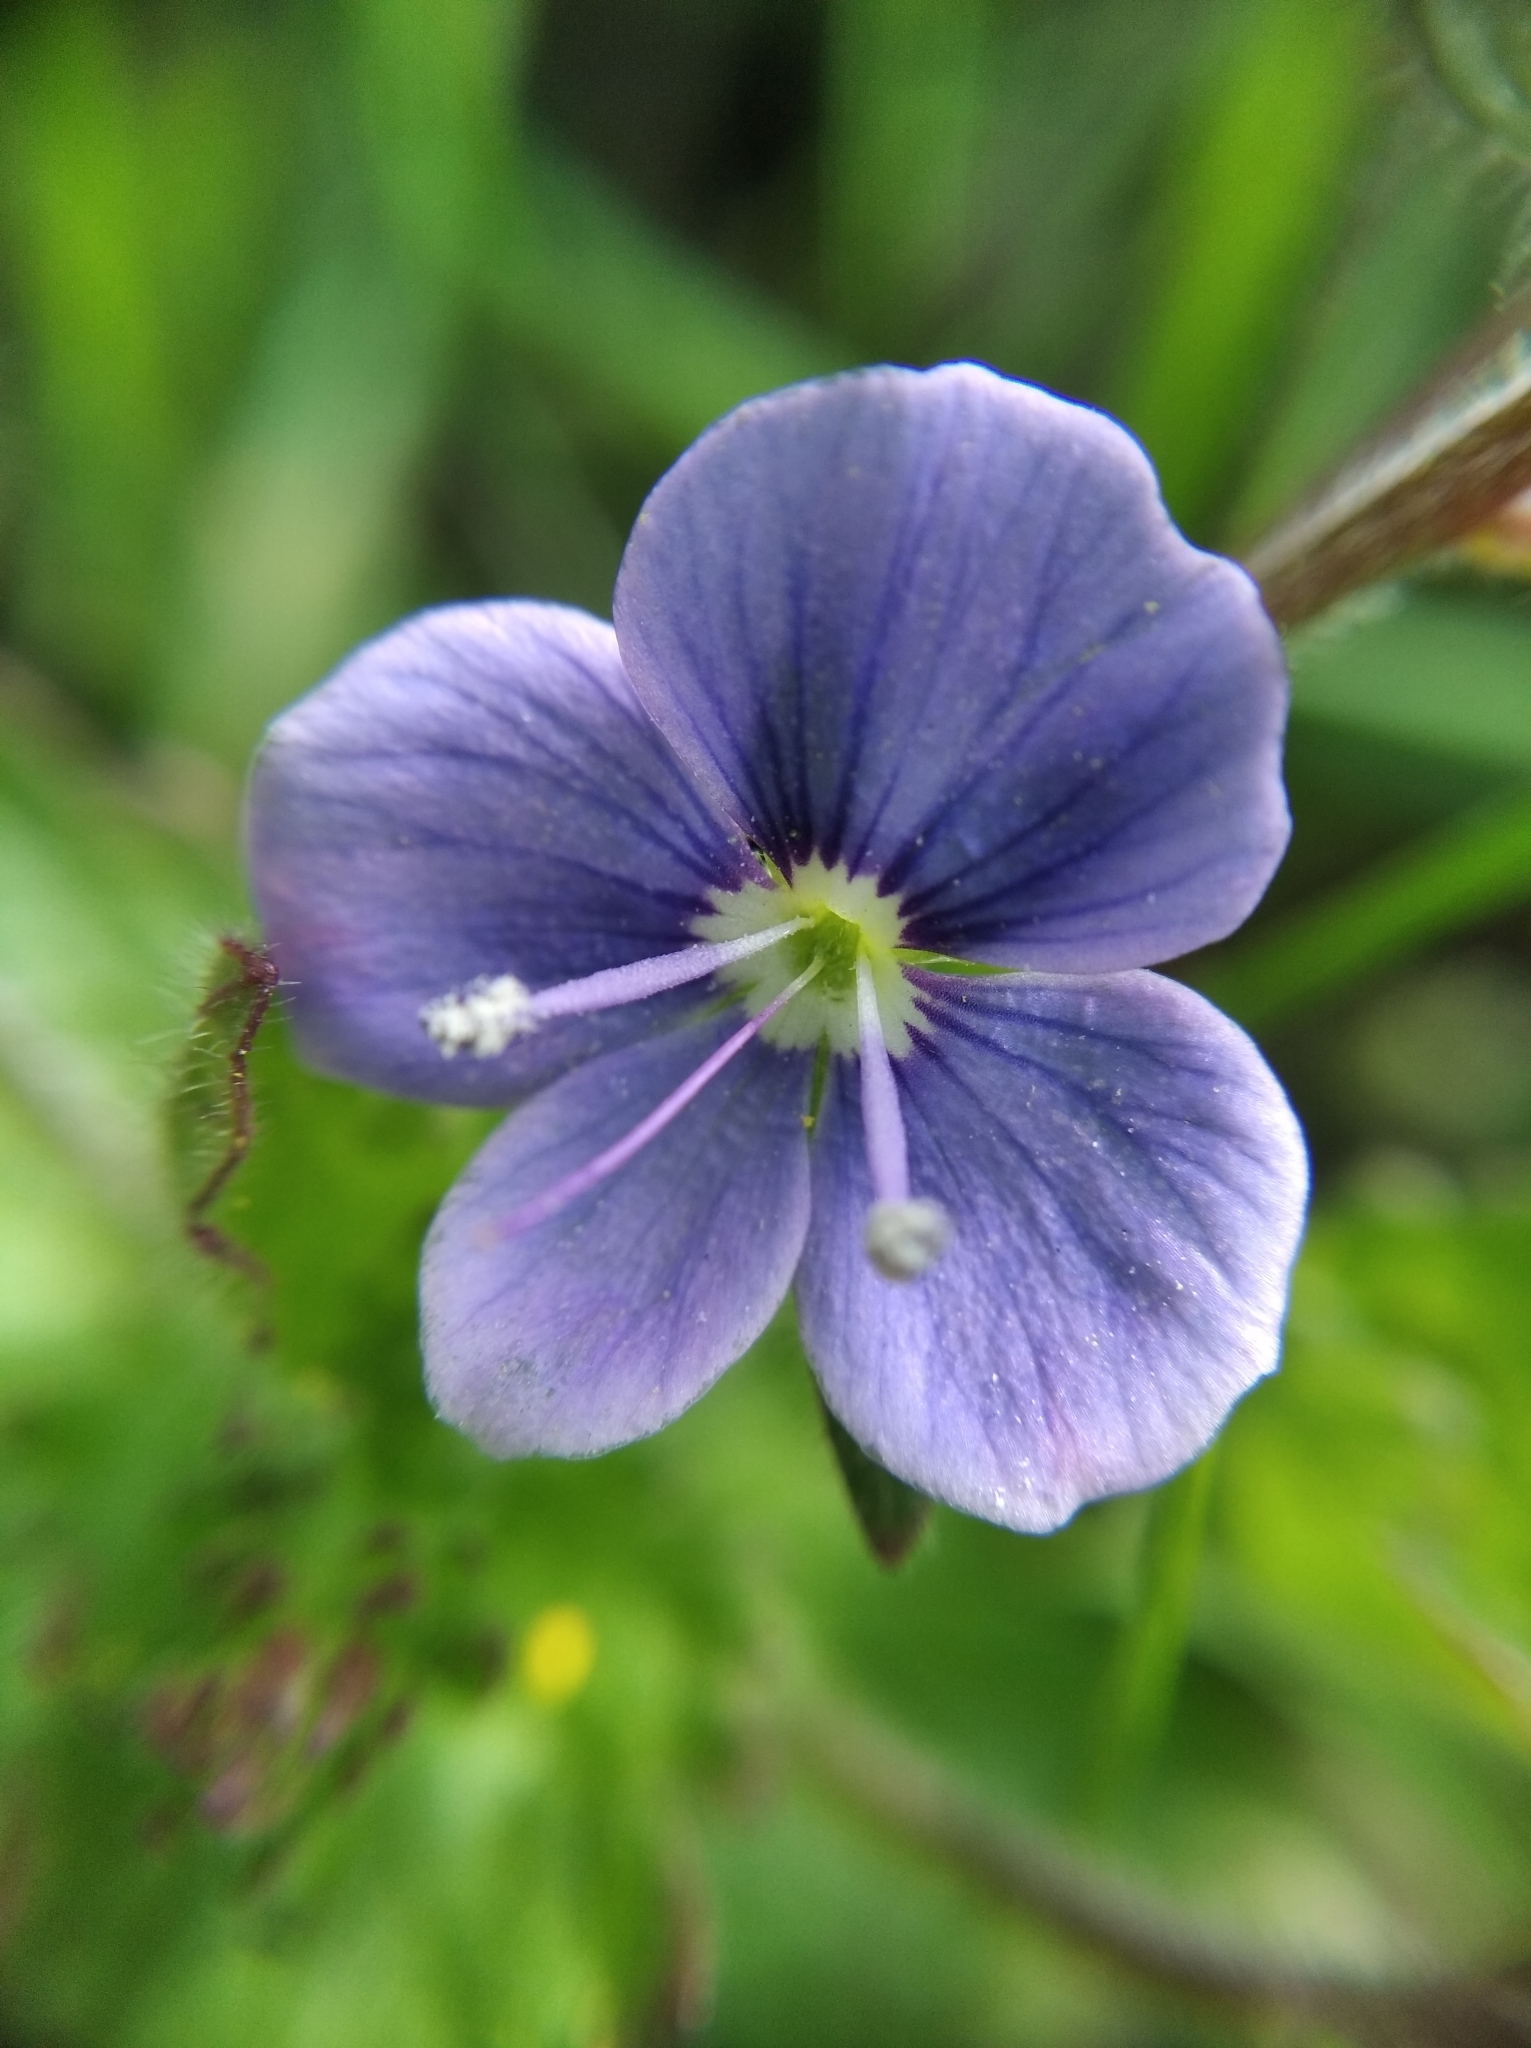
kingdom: Plantae
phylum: Tracheophyta
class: Magnoliopsida
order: Lamiales
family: Plantaginaceae
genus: Veronica
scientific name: Veronica chamaedrys
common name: Germander speedwell
